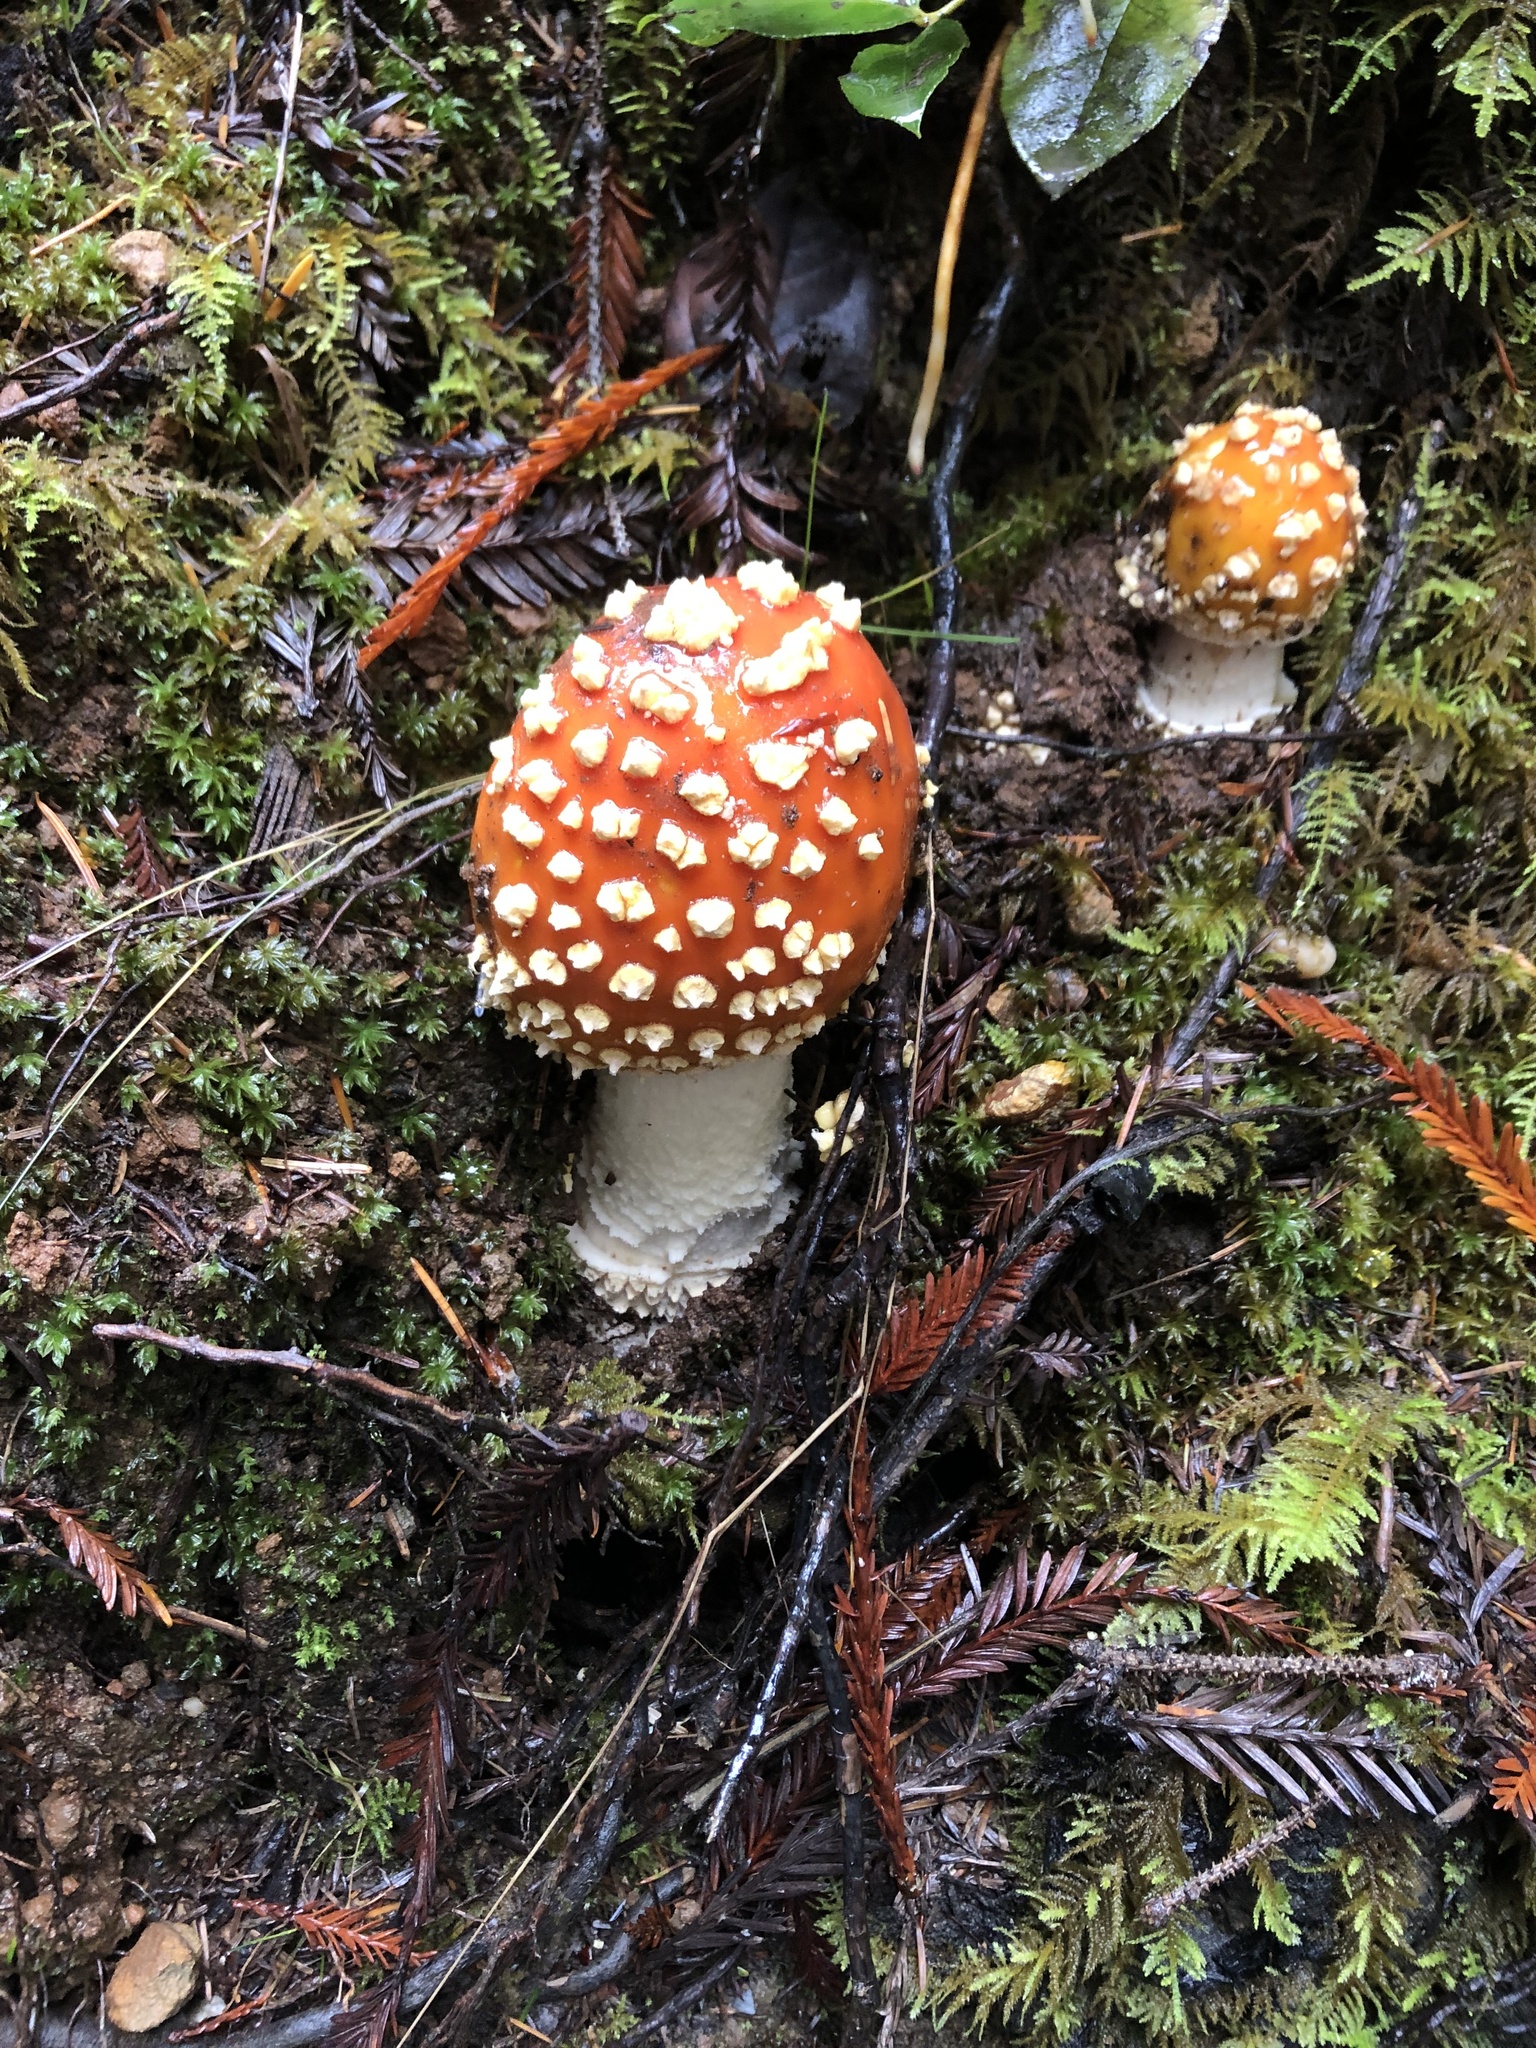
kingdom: Fungi
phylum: Basidiomycota
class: Agaricomycetes
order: Agaricales
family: Amanitaceae
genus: Amanita
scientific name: Amanita muscaria
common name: Fly agaric
